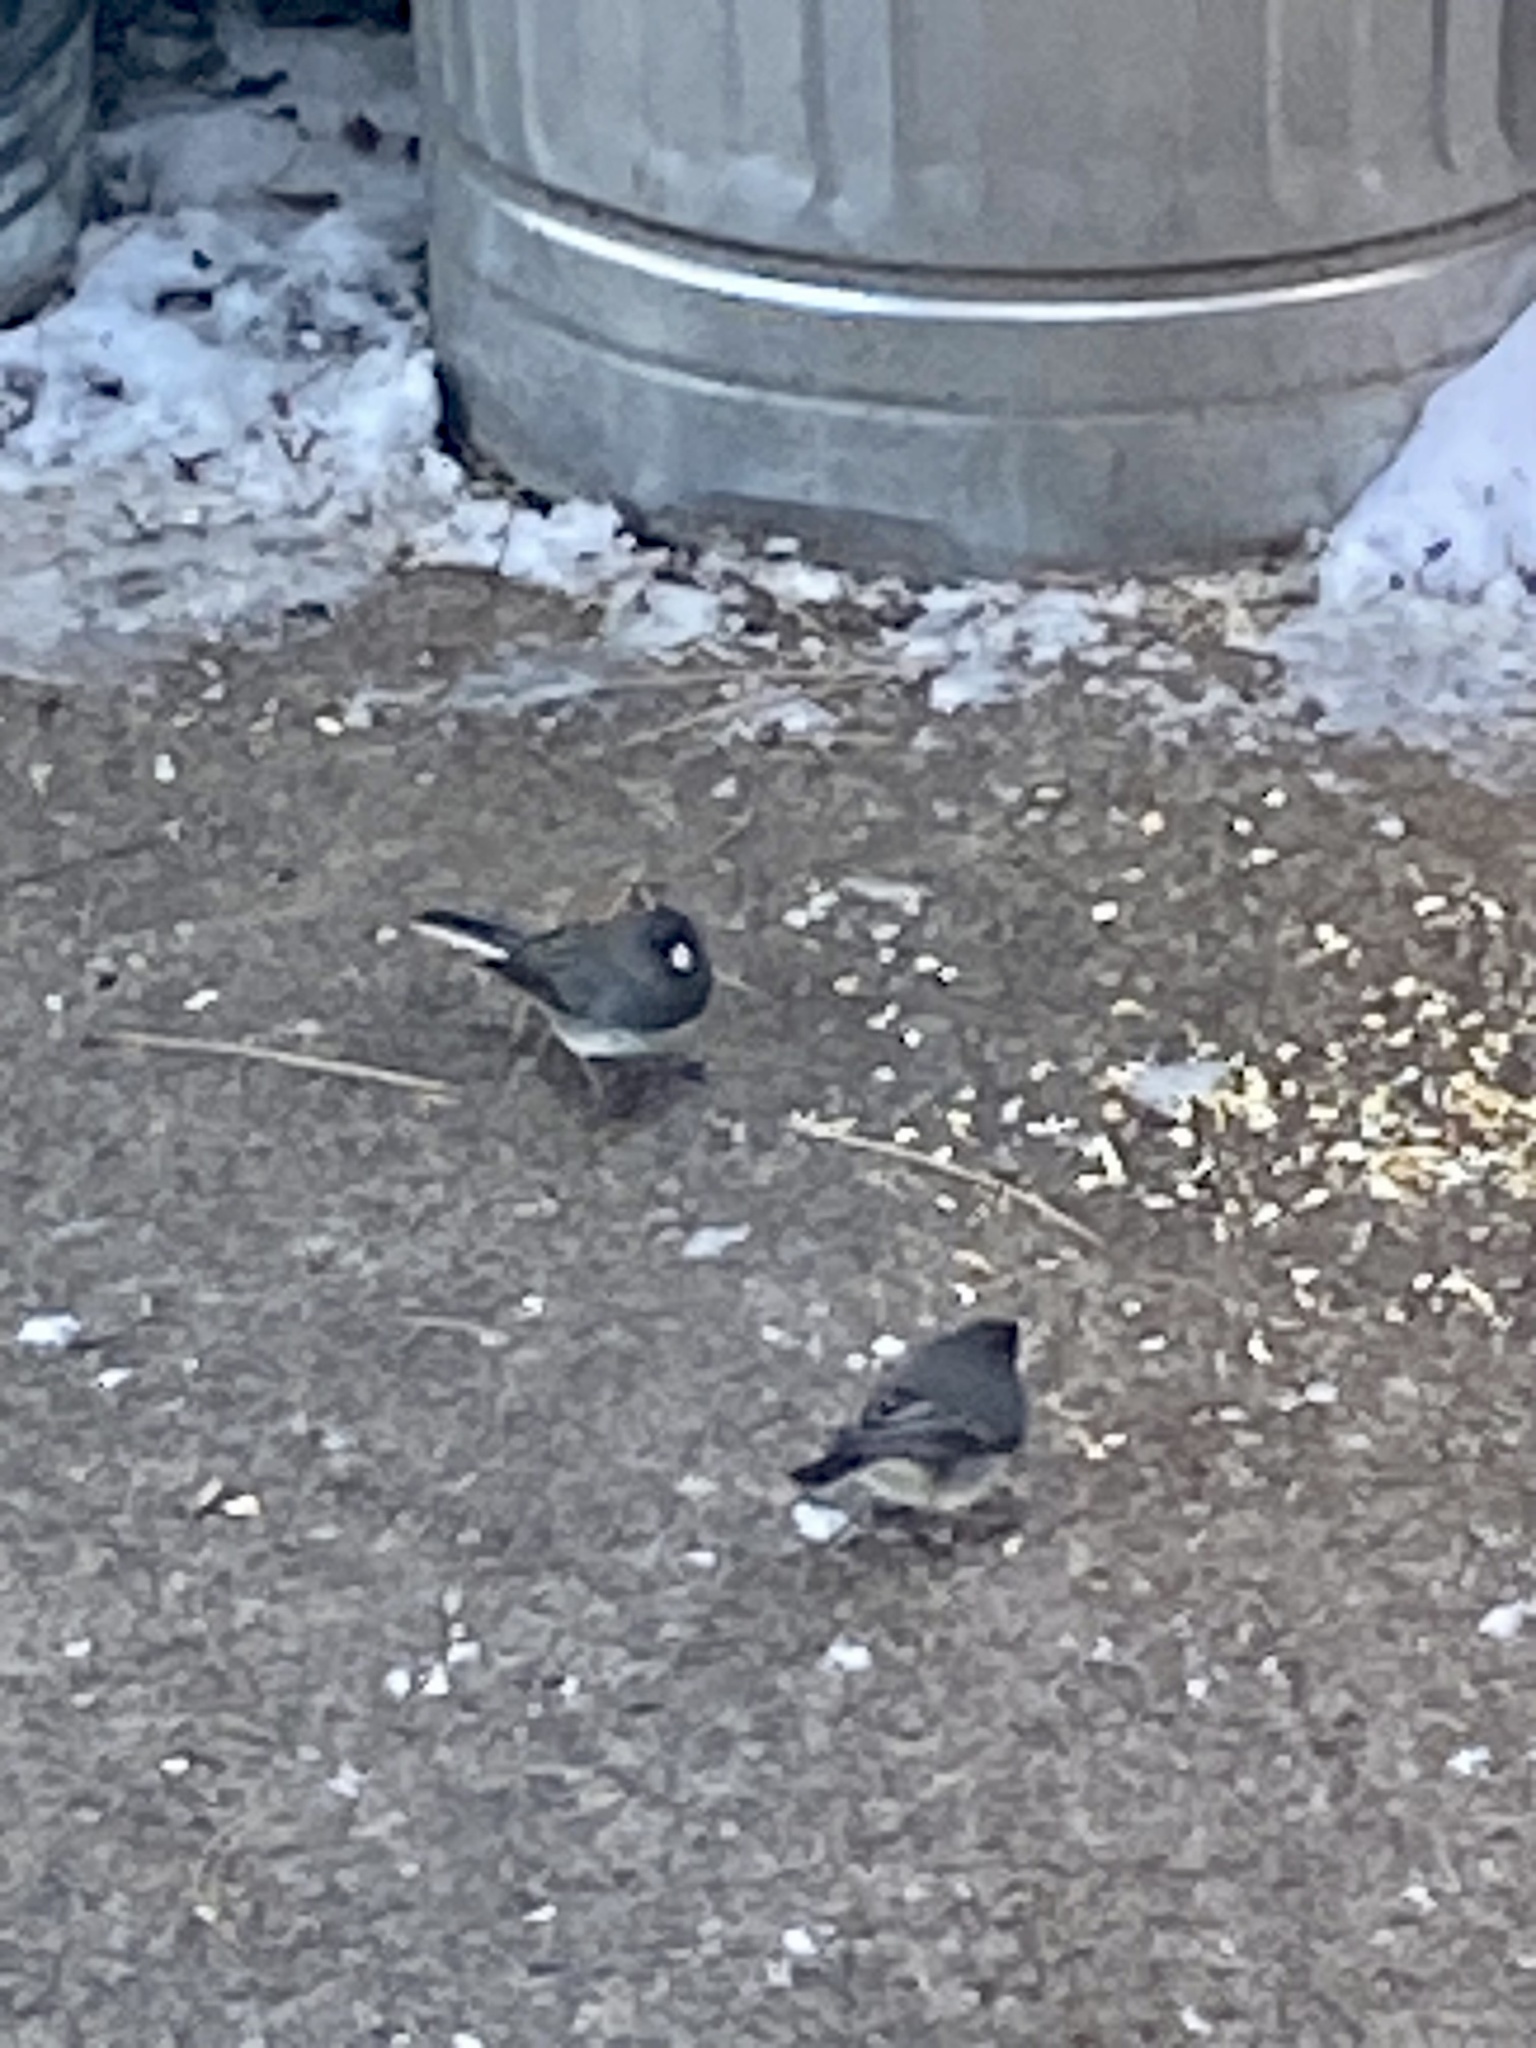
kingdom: Animalia
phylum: Chordata
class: Aves
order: Passeriformes
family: Passerellidae
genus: Junco
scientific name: Junco hyemalis
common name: Dark-eyed junco
